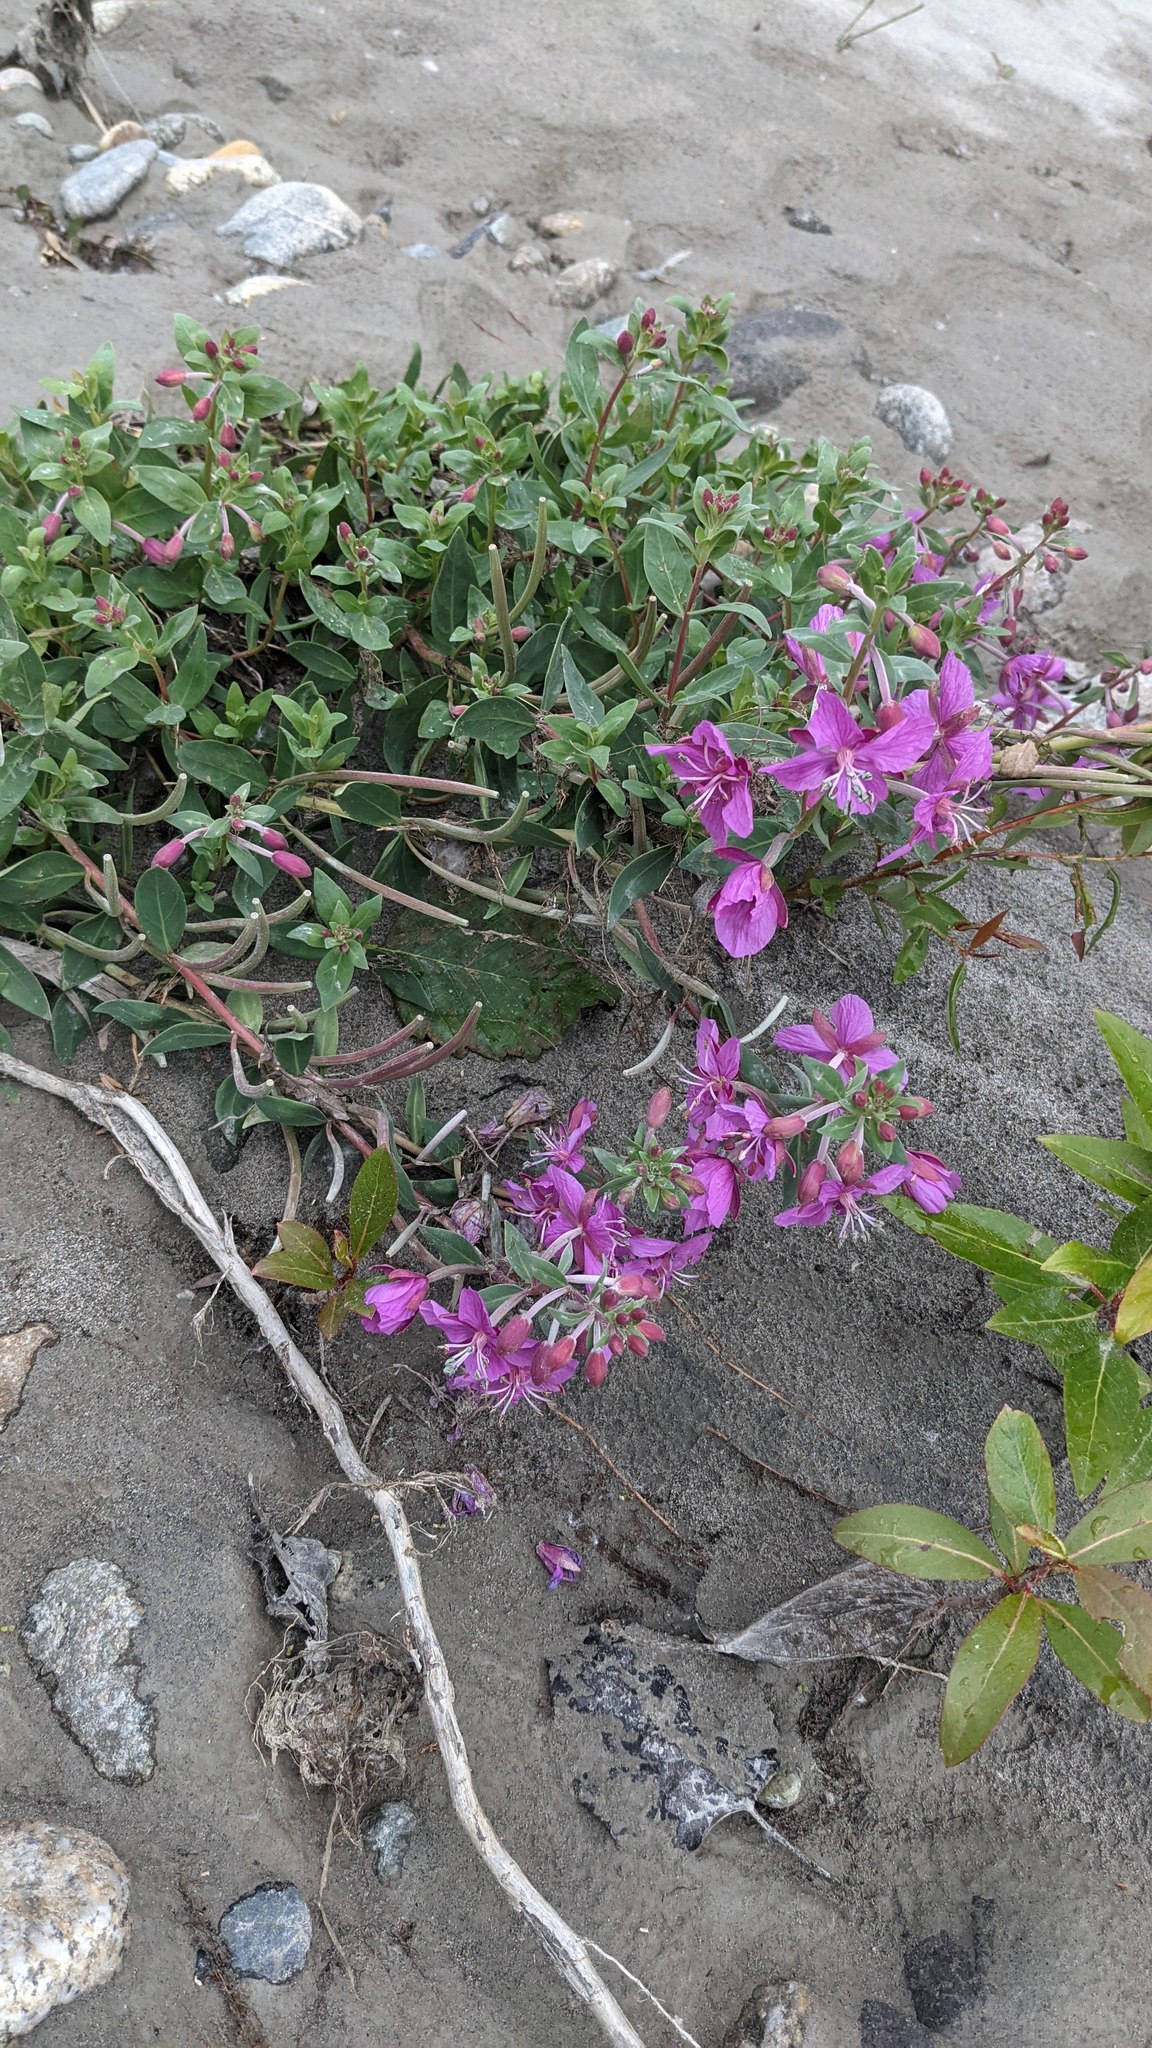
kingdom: Plantae
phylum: Tracheophyta
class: Magnoliopsida
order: Myrtales
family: Onagraceae
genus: Chamaenerion
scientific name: Chamaenerion latifolium
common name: Dwarf fireweed
